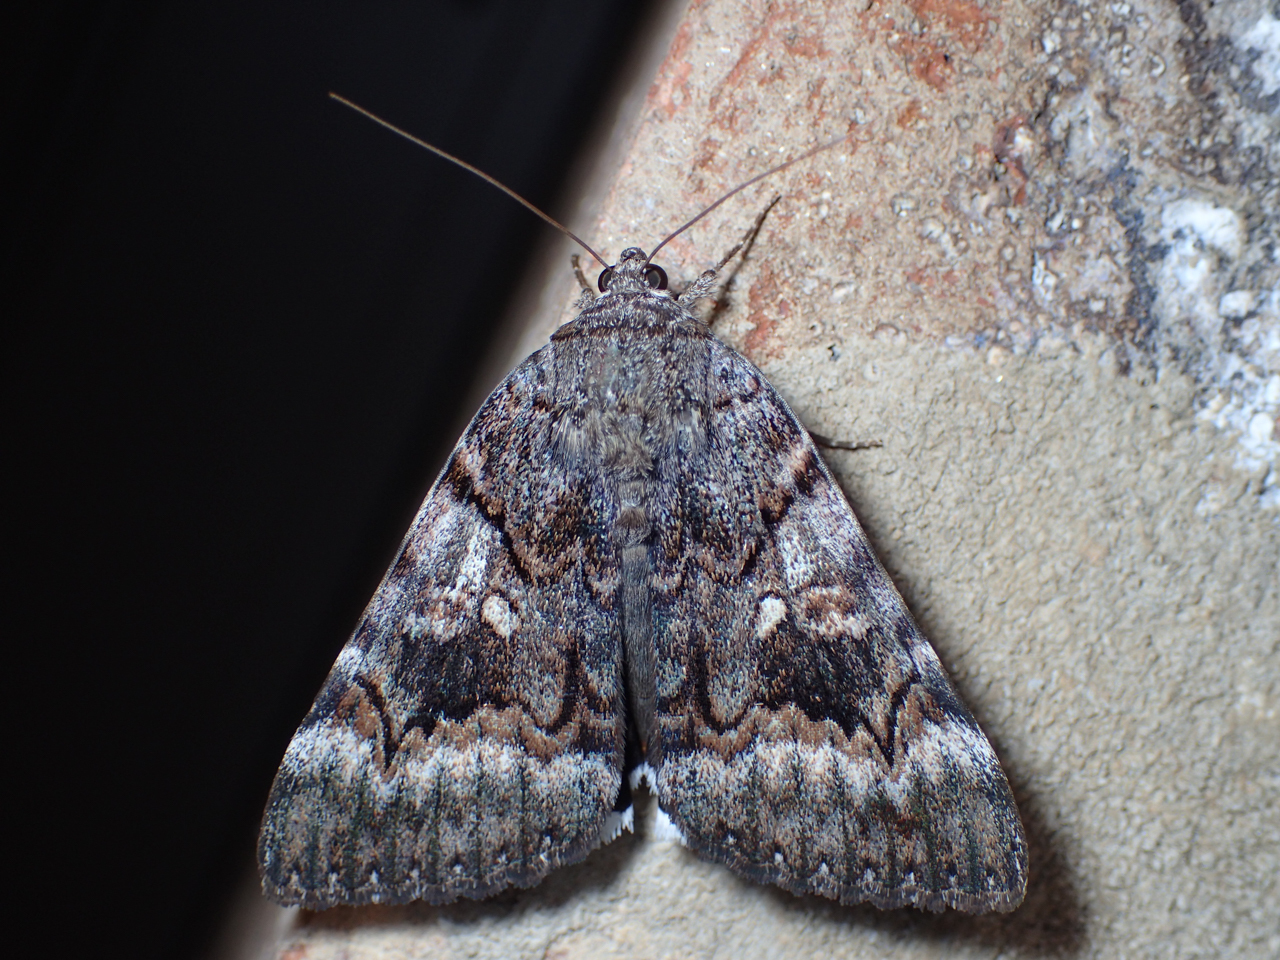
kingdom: Animalia
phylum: Arthropoda
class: Insecta
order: Lepidoptera
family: Erebidae
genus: Catocala
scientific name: Catocala epione
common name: Epione underwing
